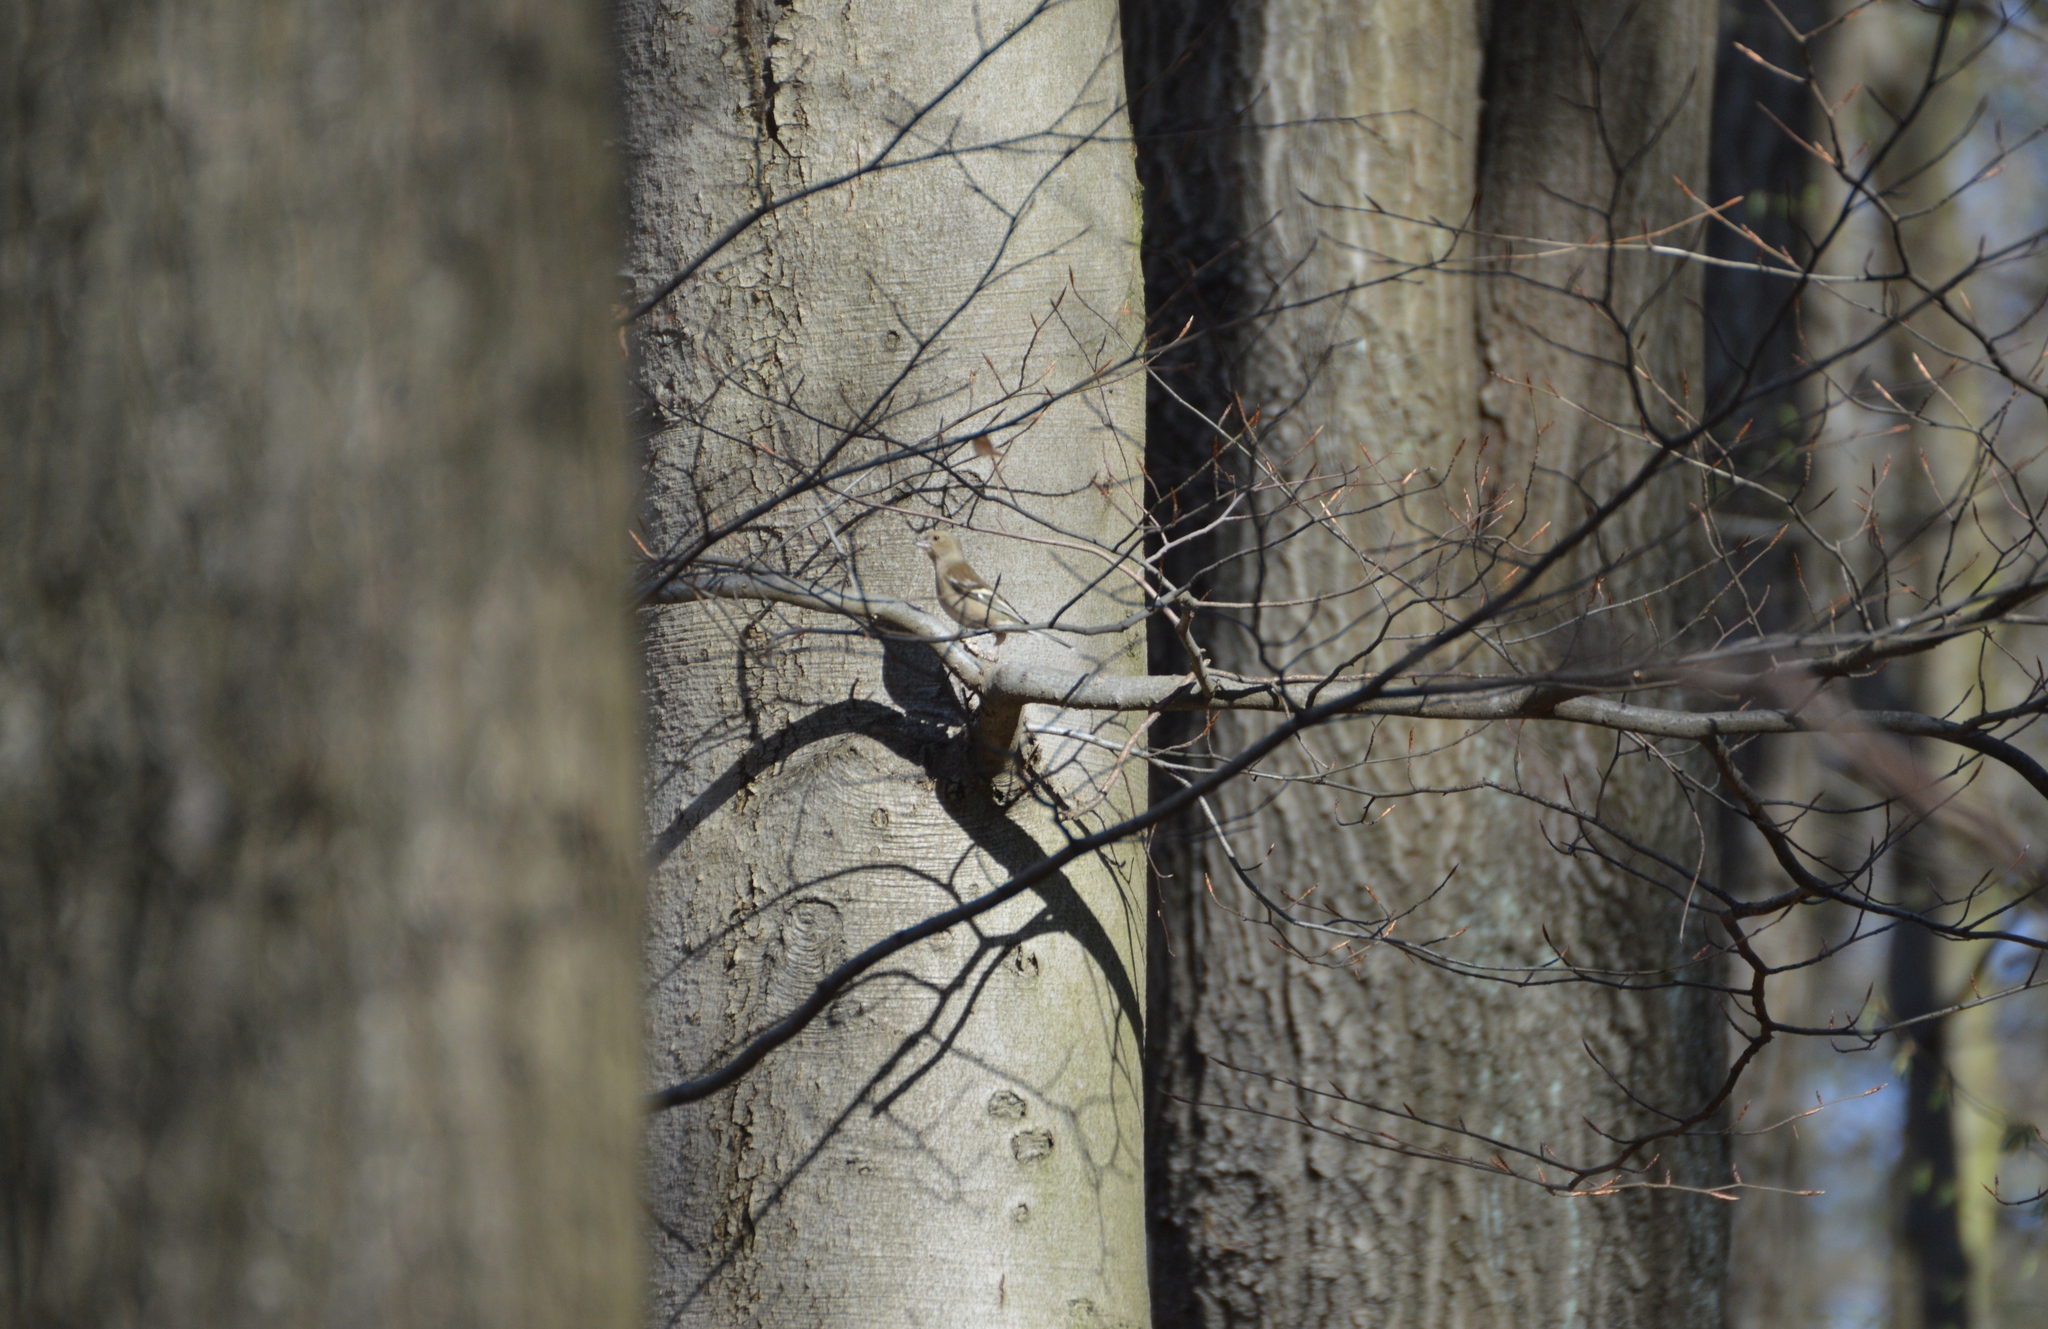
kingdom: Animalia
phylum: Chordata
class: Aves
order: Passeriformes
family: Fringillidae
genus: Fringilla
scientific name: Fringilla coelebs
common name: Common chaffinch
